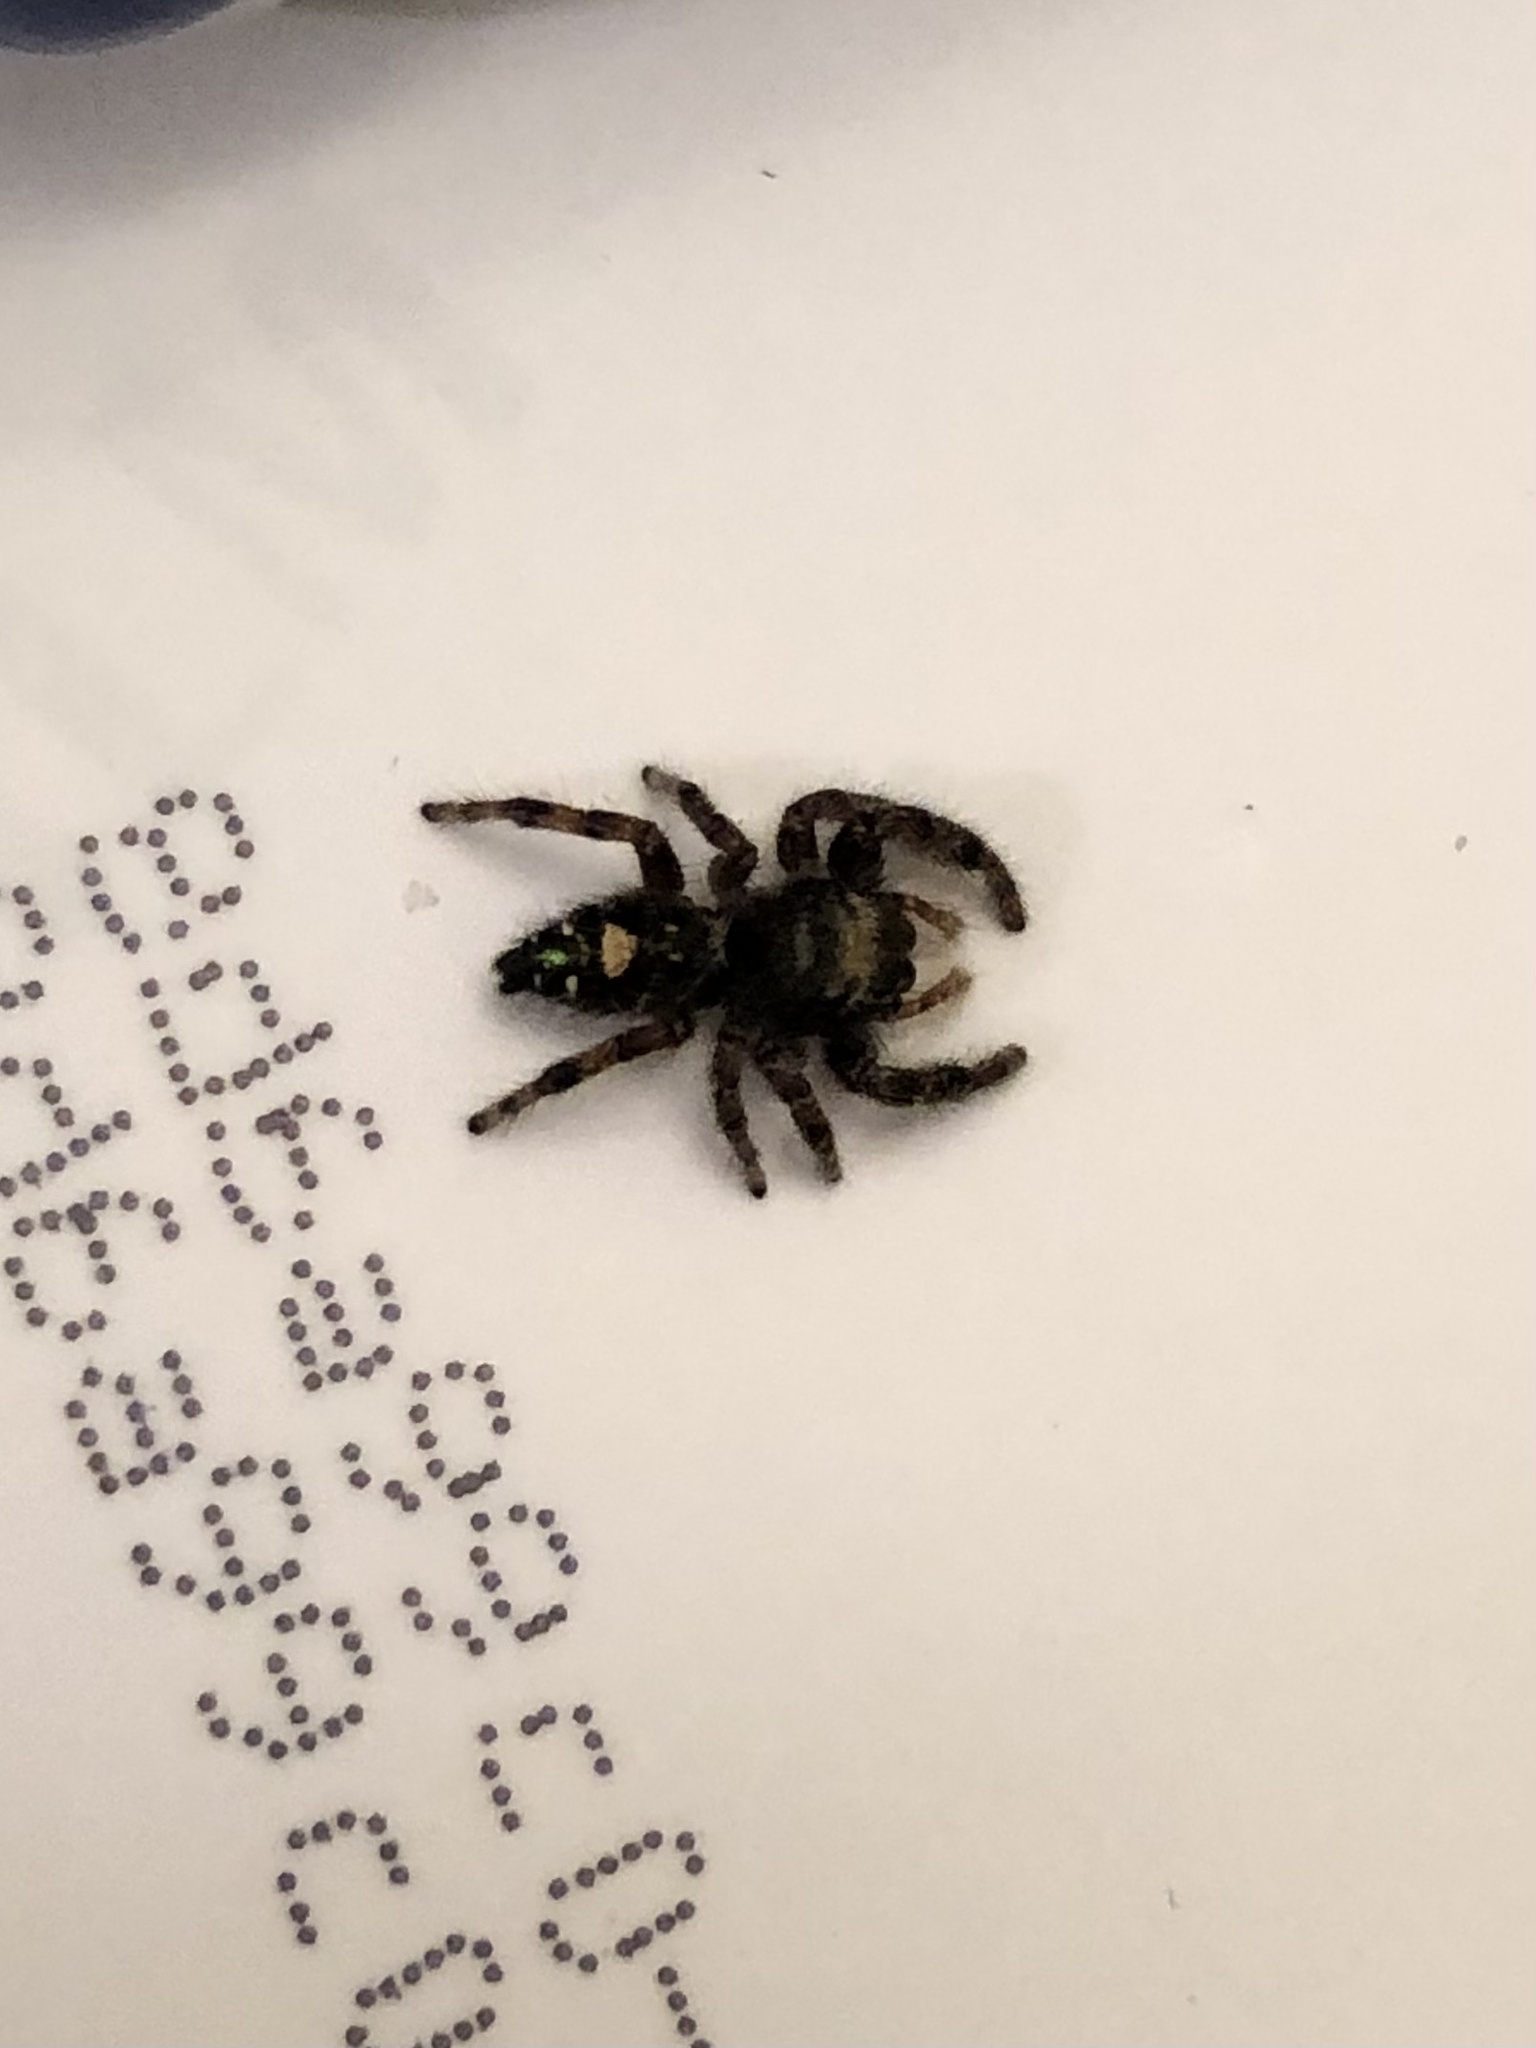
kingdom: Animalia
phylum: Arthropoda
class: Arachnida
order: Araneae
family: Salticidae
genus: Phidippus
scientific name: Phidippus audax
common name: Bold jumper
